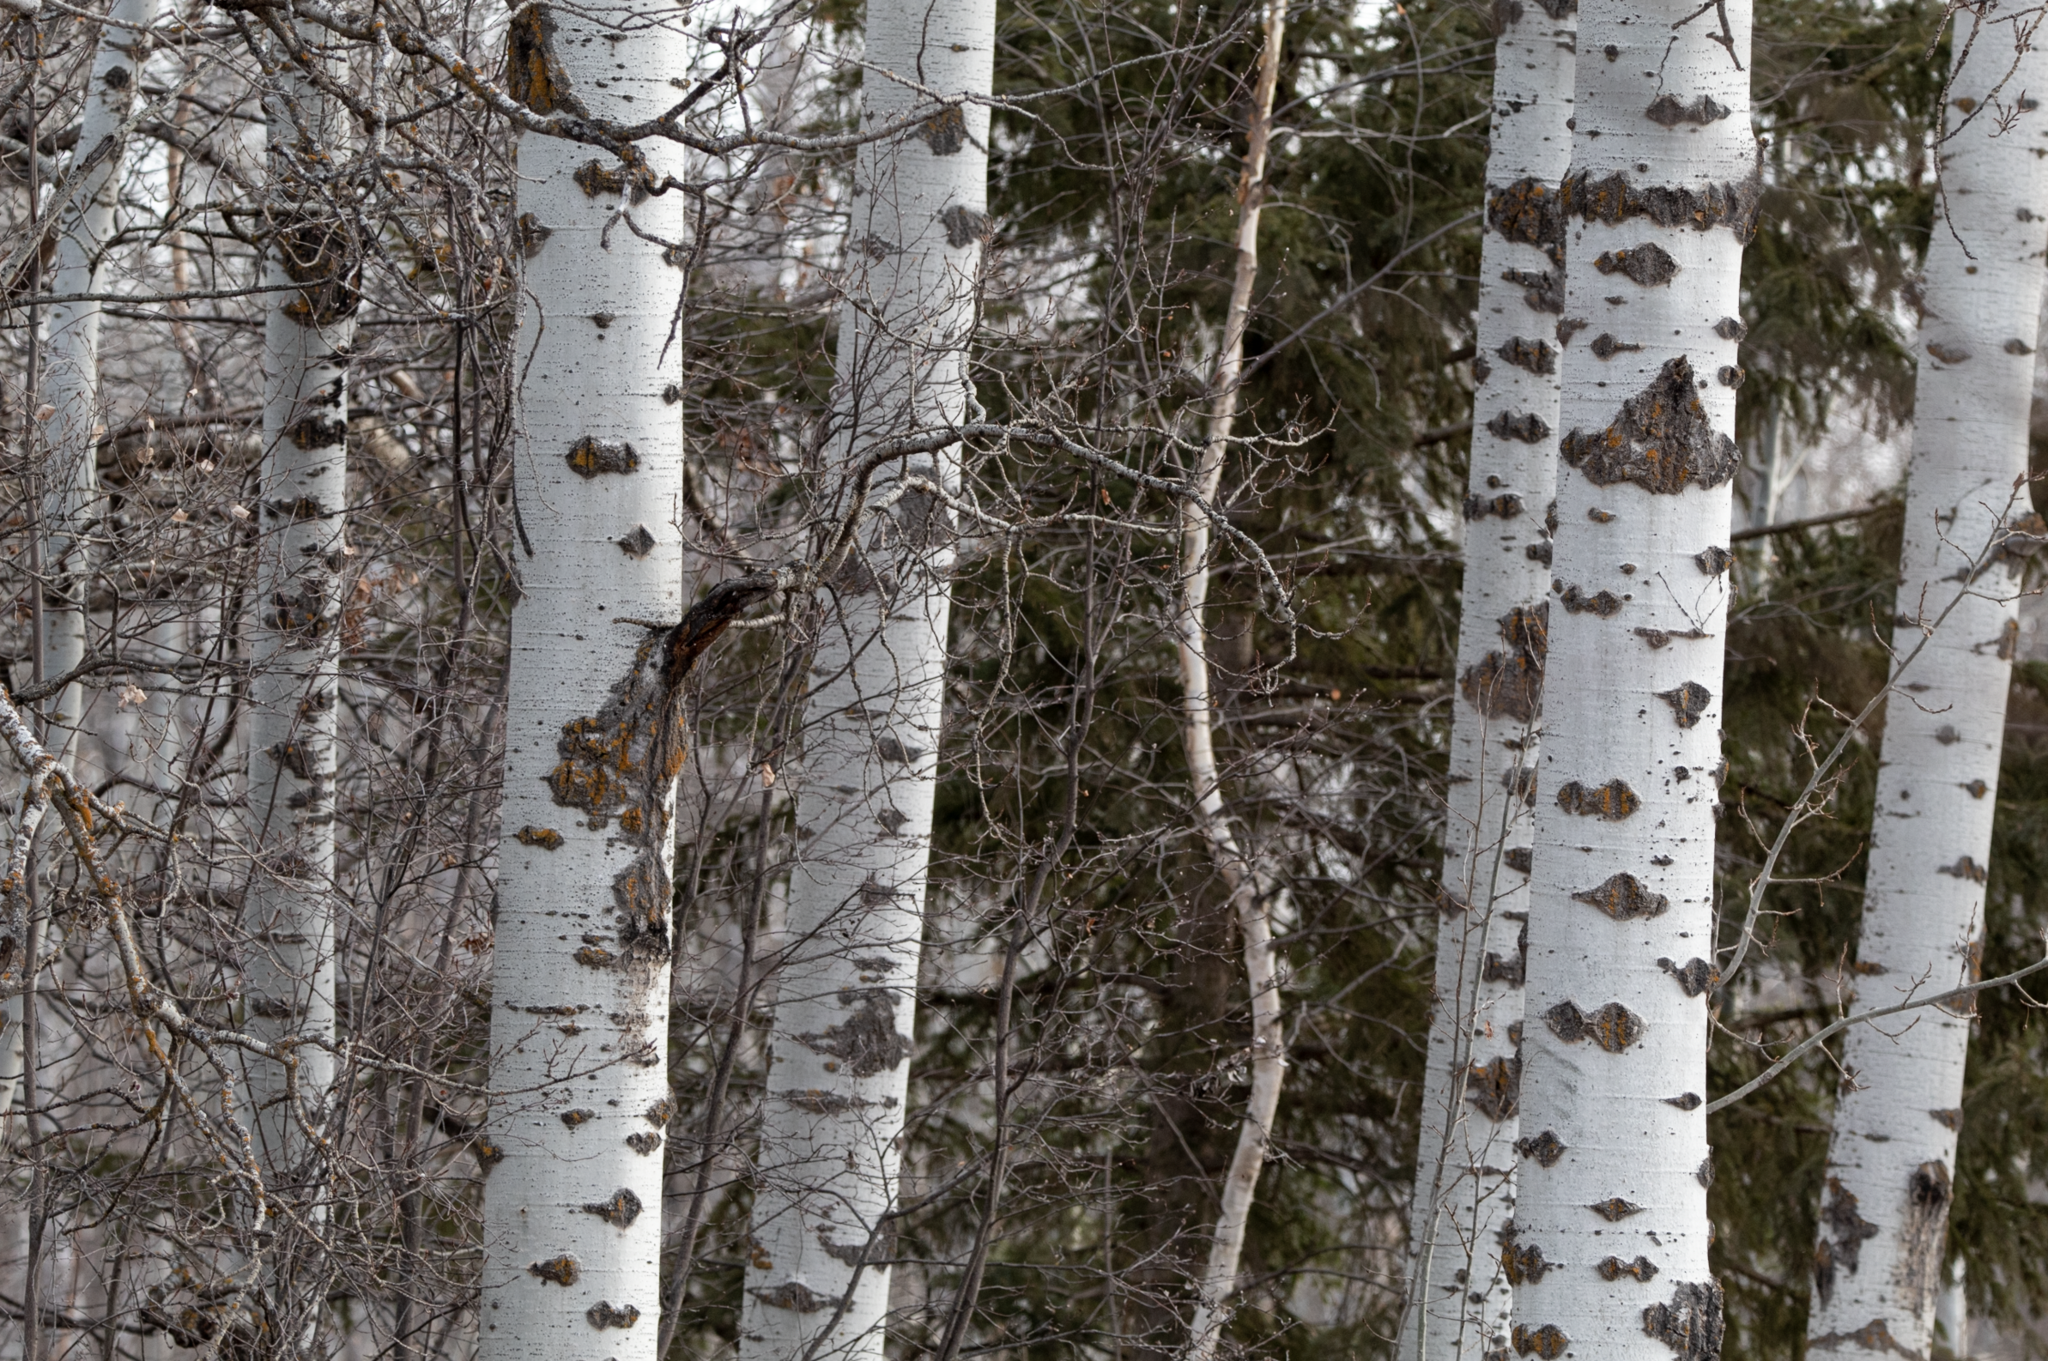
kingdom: Plantae
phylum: Tracheophyta
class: Magnoliopsida
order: Malpighiales
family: Salicaceae
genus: Populus
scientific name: Populus tremuloides
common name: Quaking aspen
